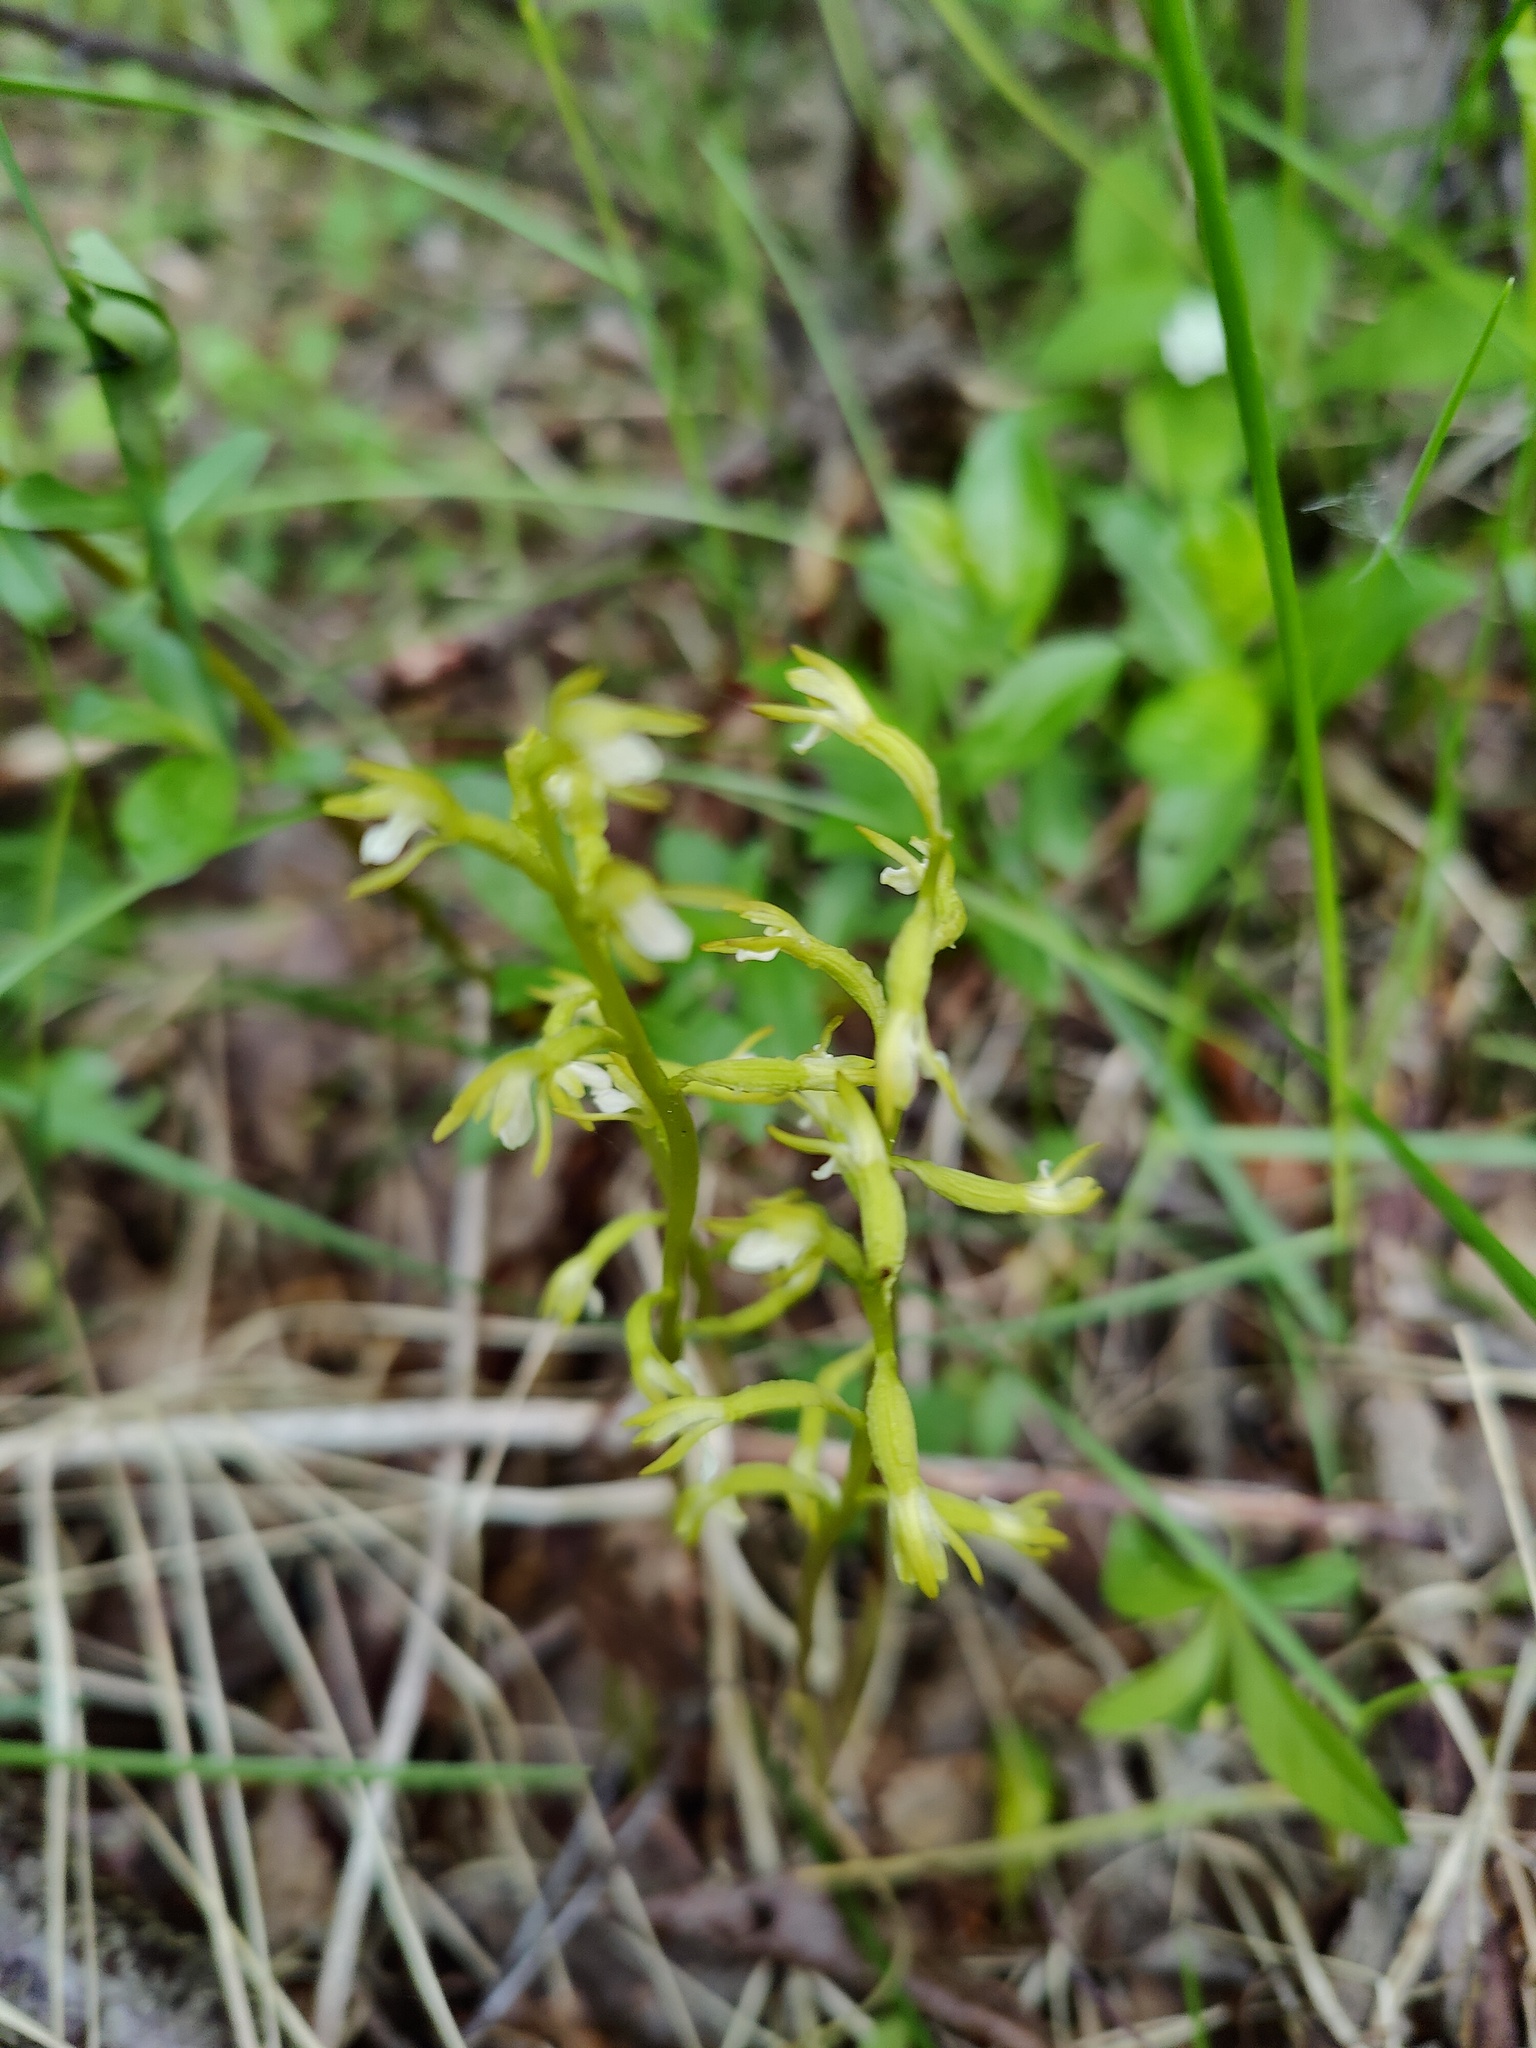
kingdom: Plantae
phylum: Tracheophyta
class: Liliopsida
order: Asparagales
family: Orchidaceae
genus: Corallorhiza
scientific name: Corallorhiza trifida
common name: Yellow coralroot
